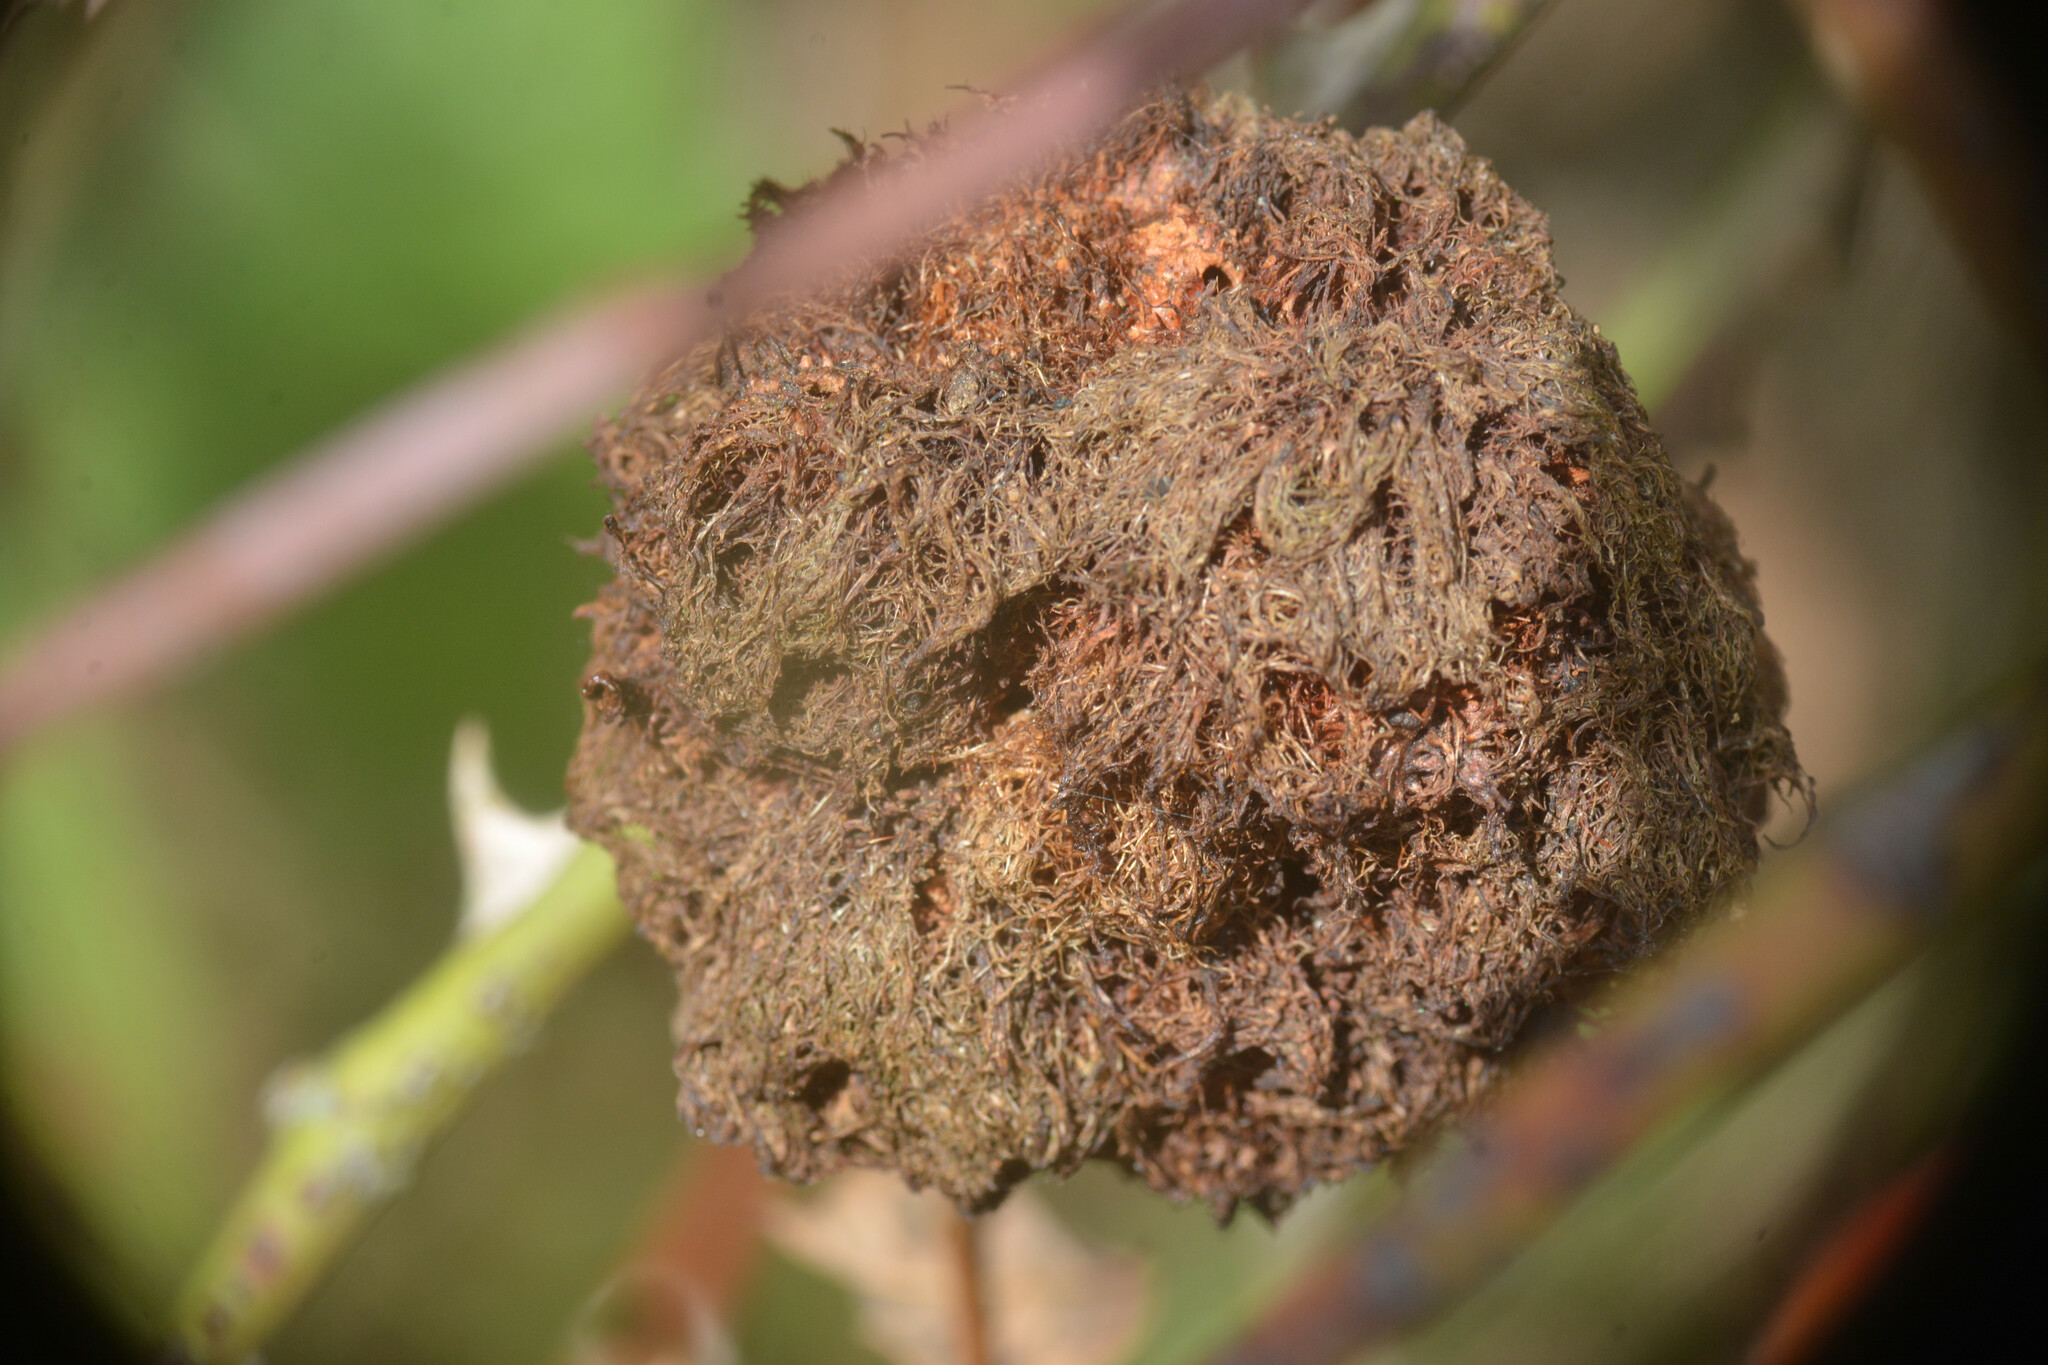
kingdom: Animalia
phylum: Arthropoda
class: Insecta
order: Hymenoptera
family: Cynipidae
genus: Diplolepis
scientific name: Diplolepis rosae
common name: Bedeguar gall
